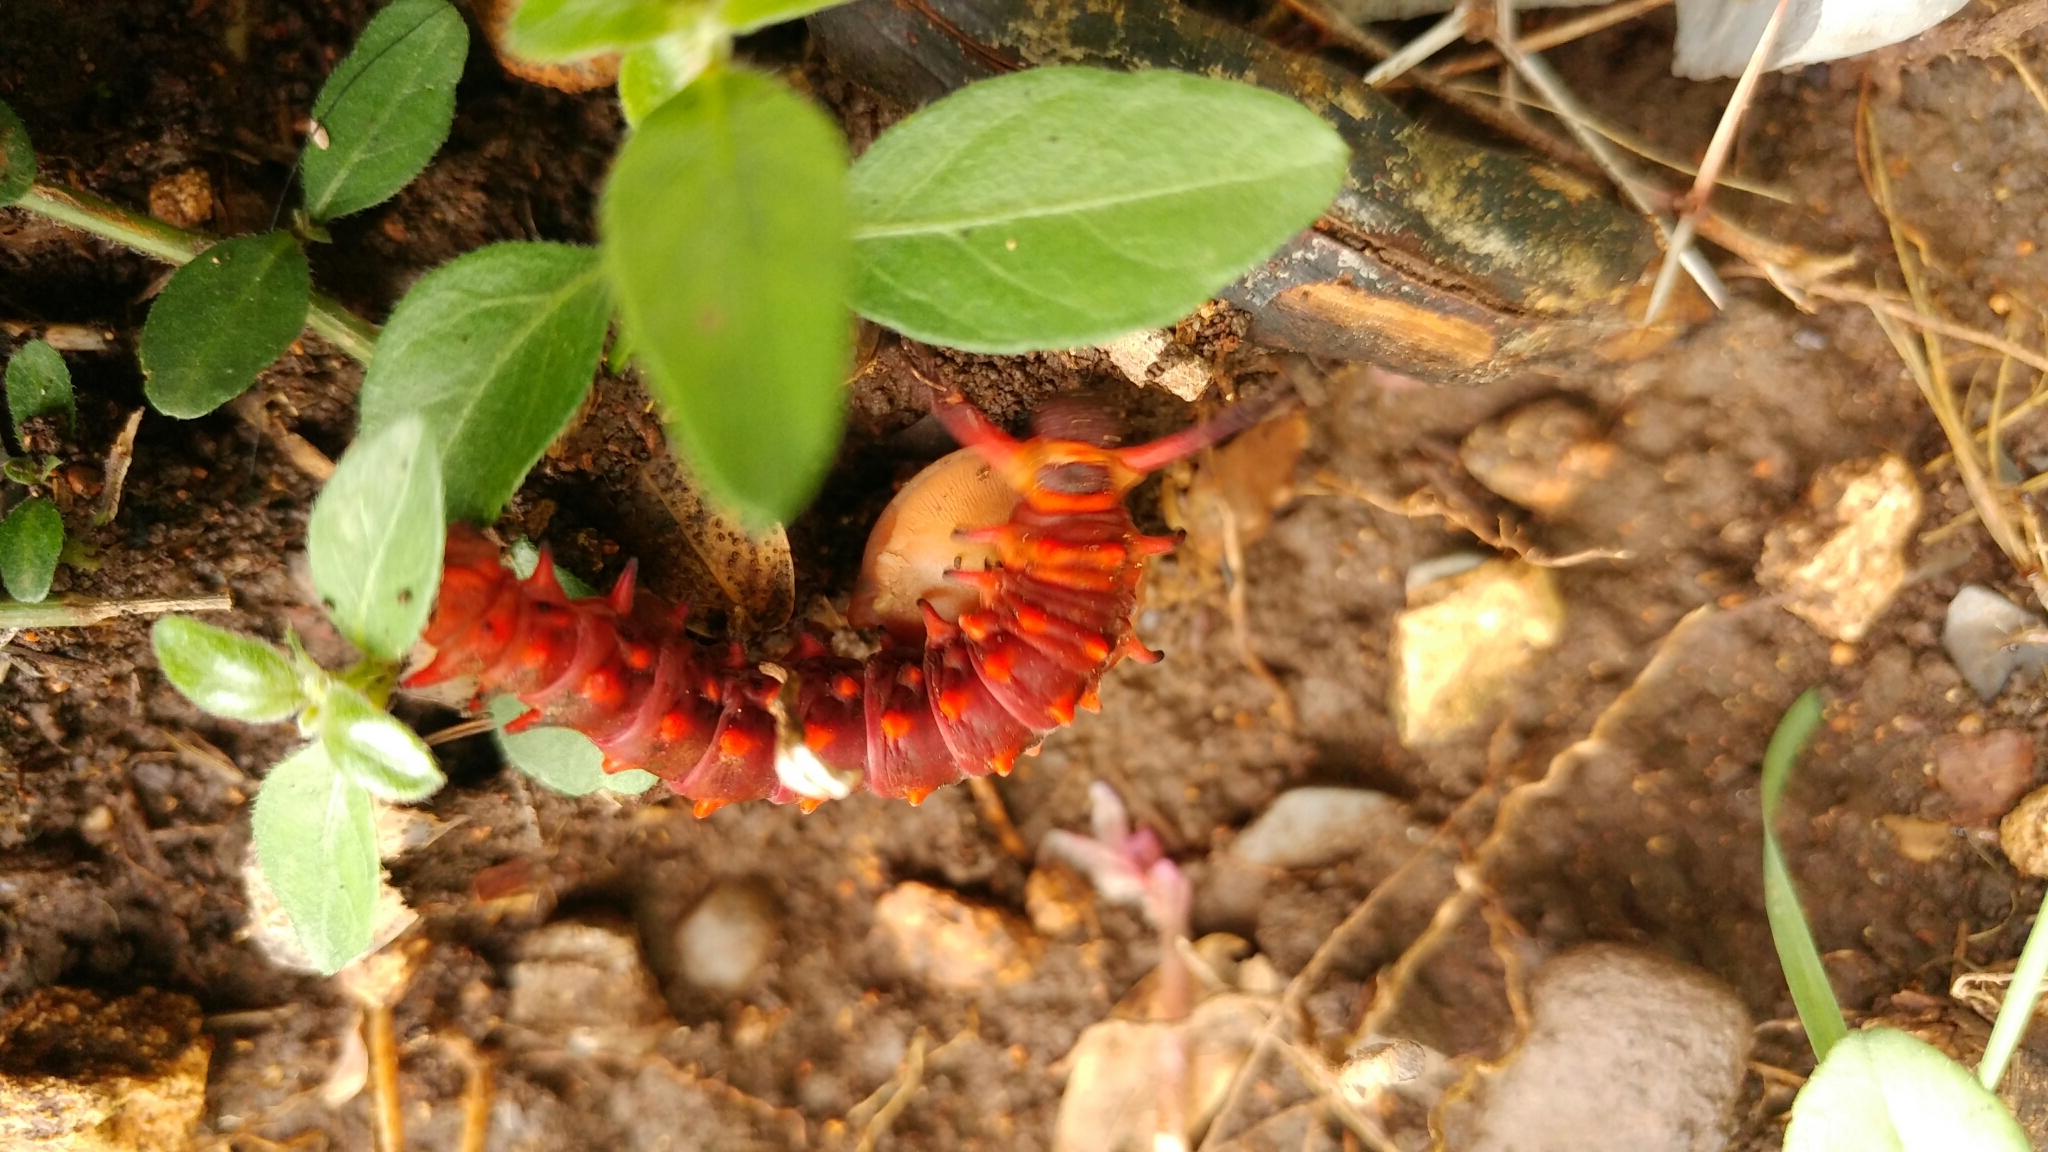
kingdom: Animalia
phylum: Arthropoda
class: Insecta
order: Lepidoptera
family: Papilionidae
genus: Battus
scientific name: Battus philenor
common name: Pipevine swallowtail
